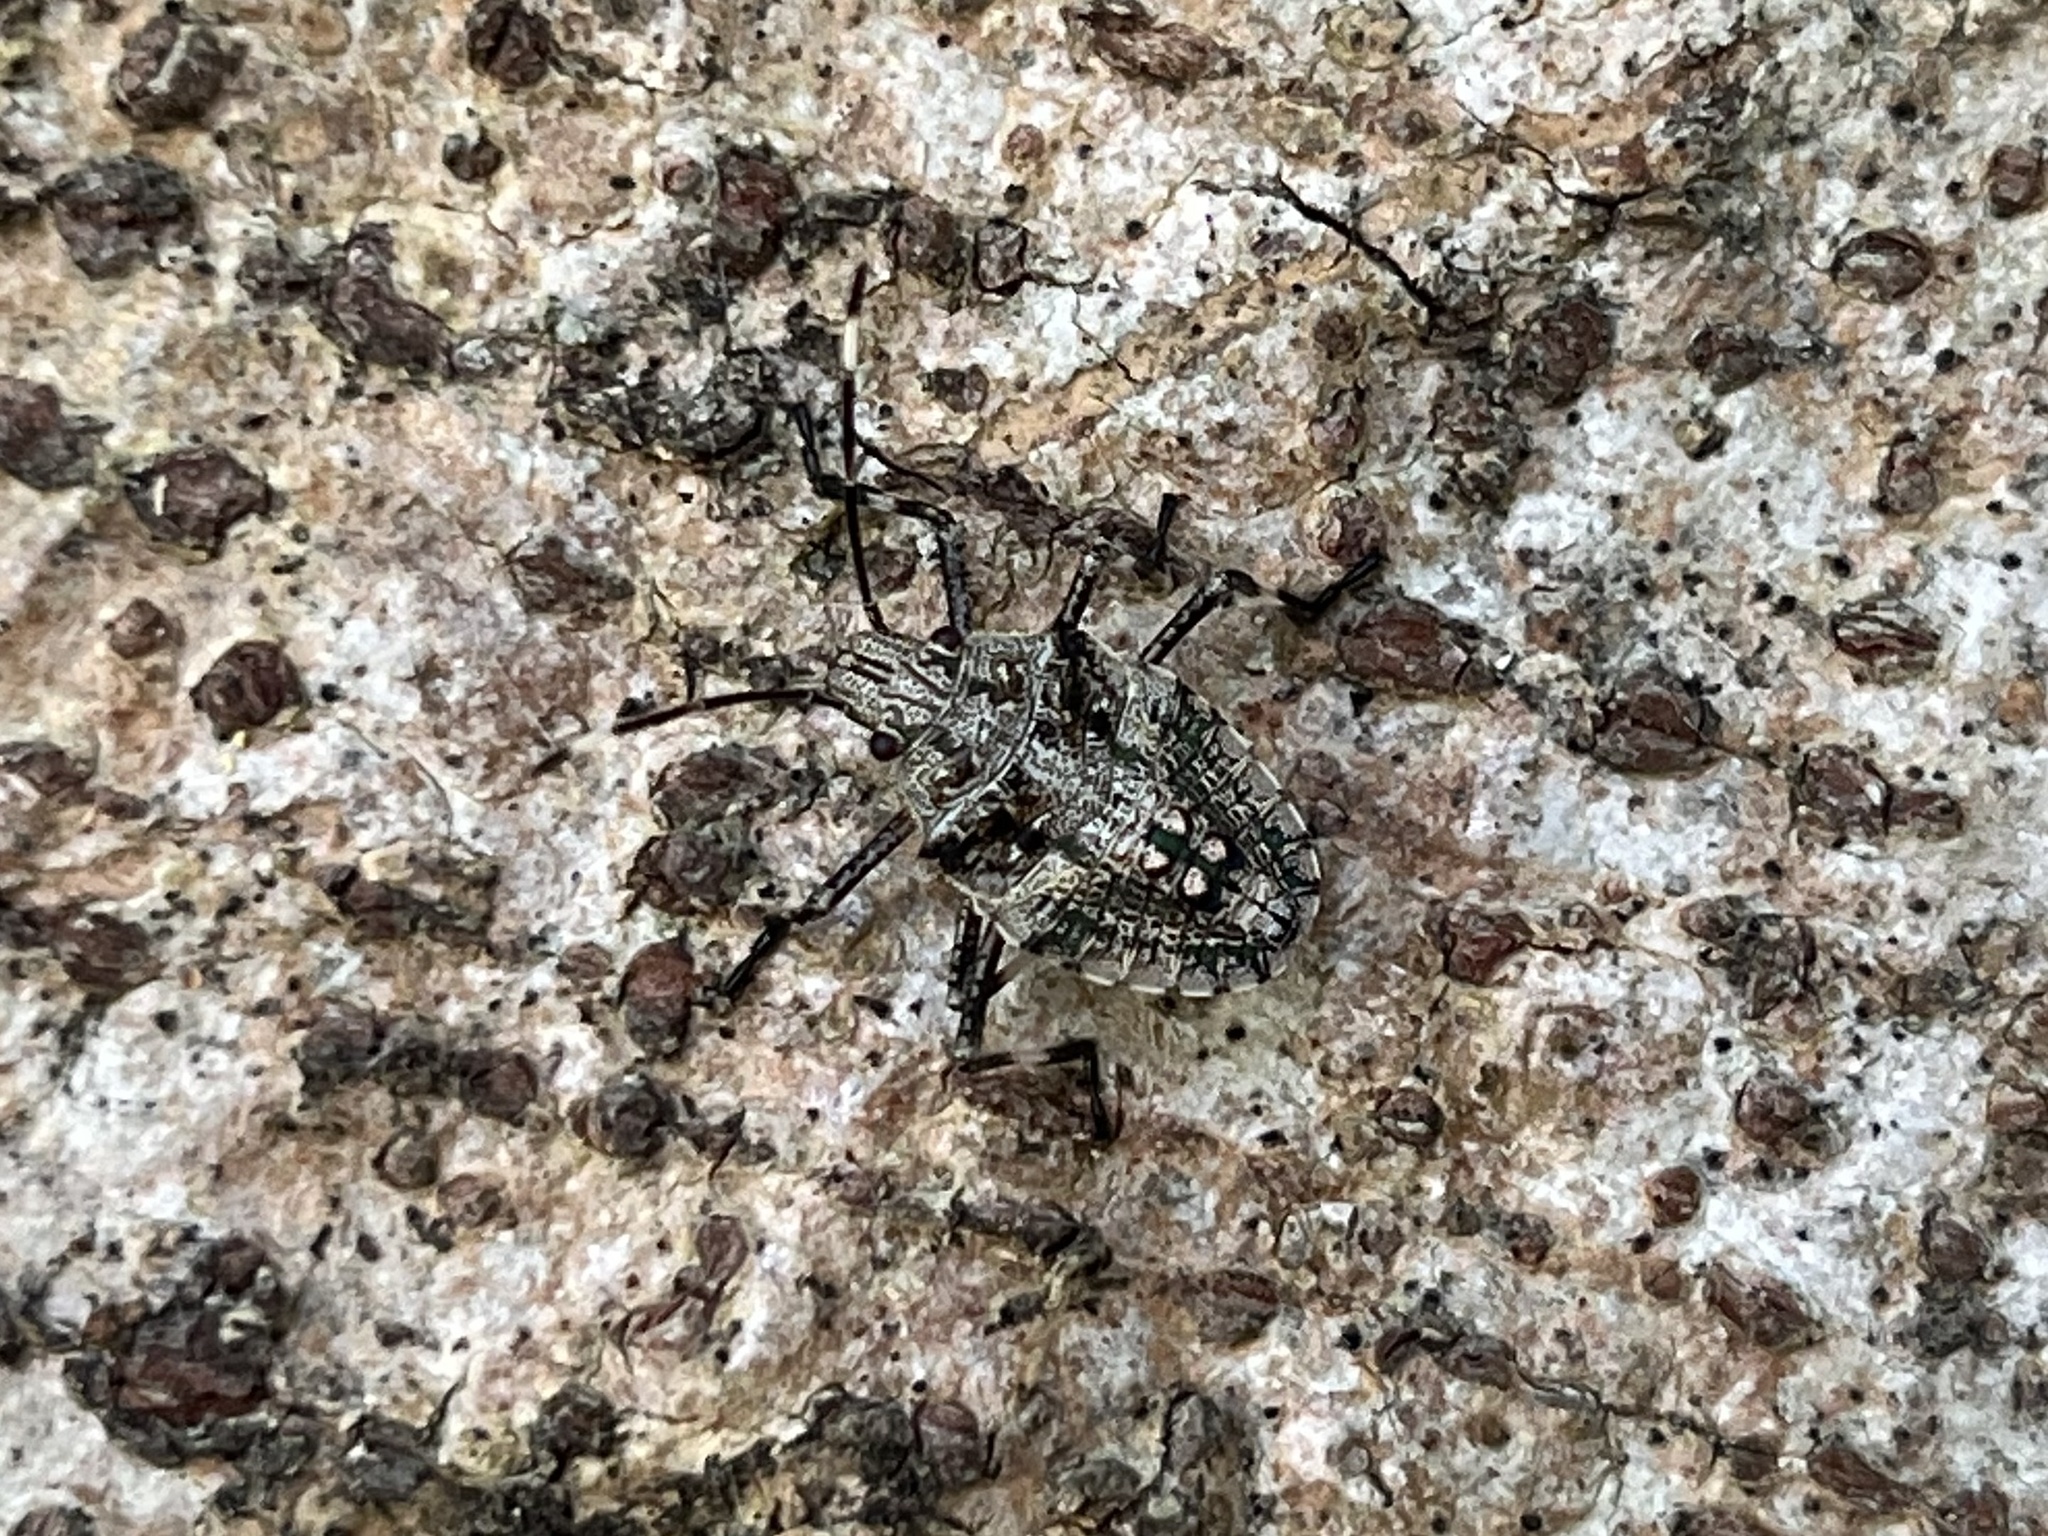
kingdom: Animalia
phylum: Arthropoda
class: Insecta
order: Hemiptera
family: Pentatomidae
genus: Bromocoris
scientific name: Bromocoris
